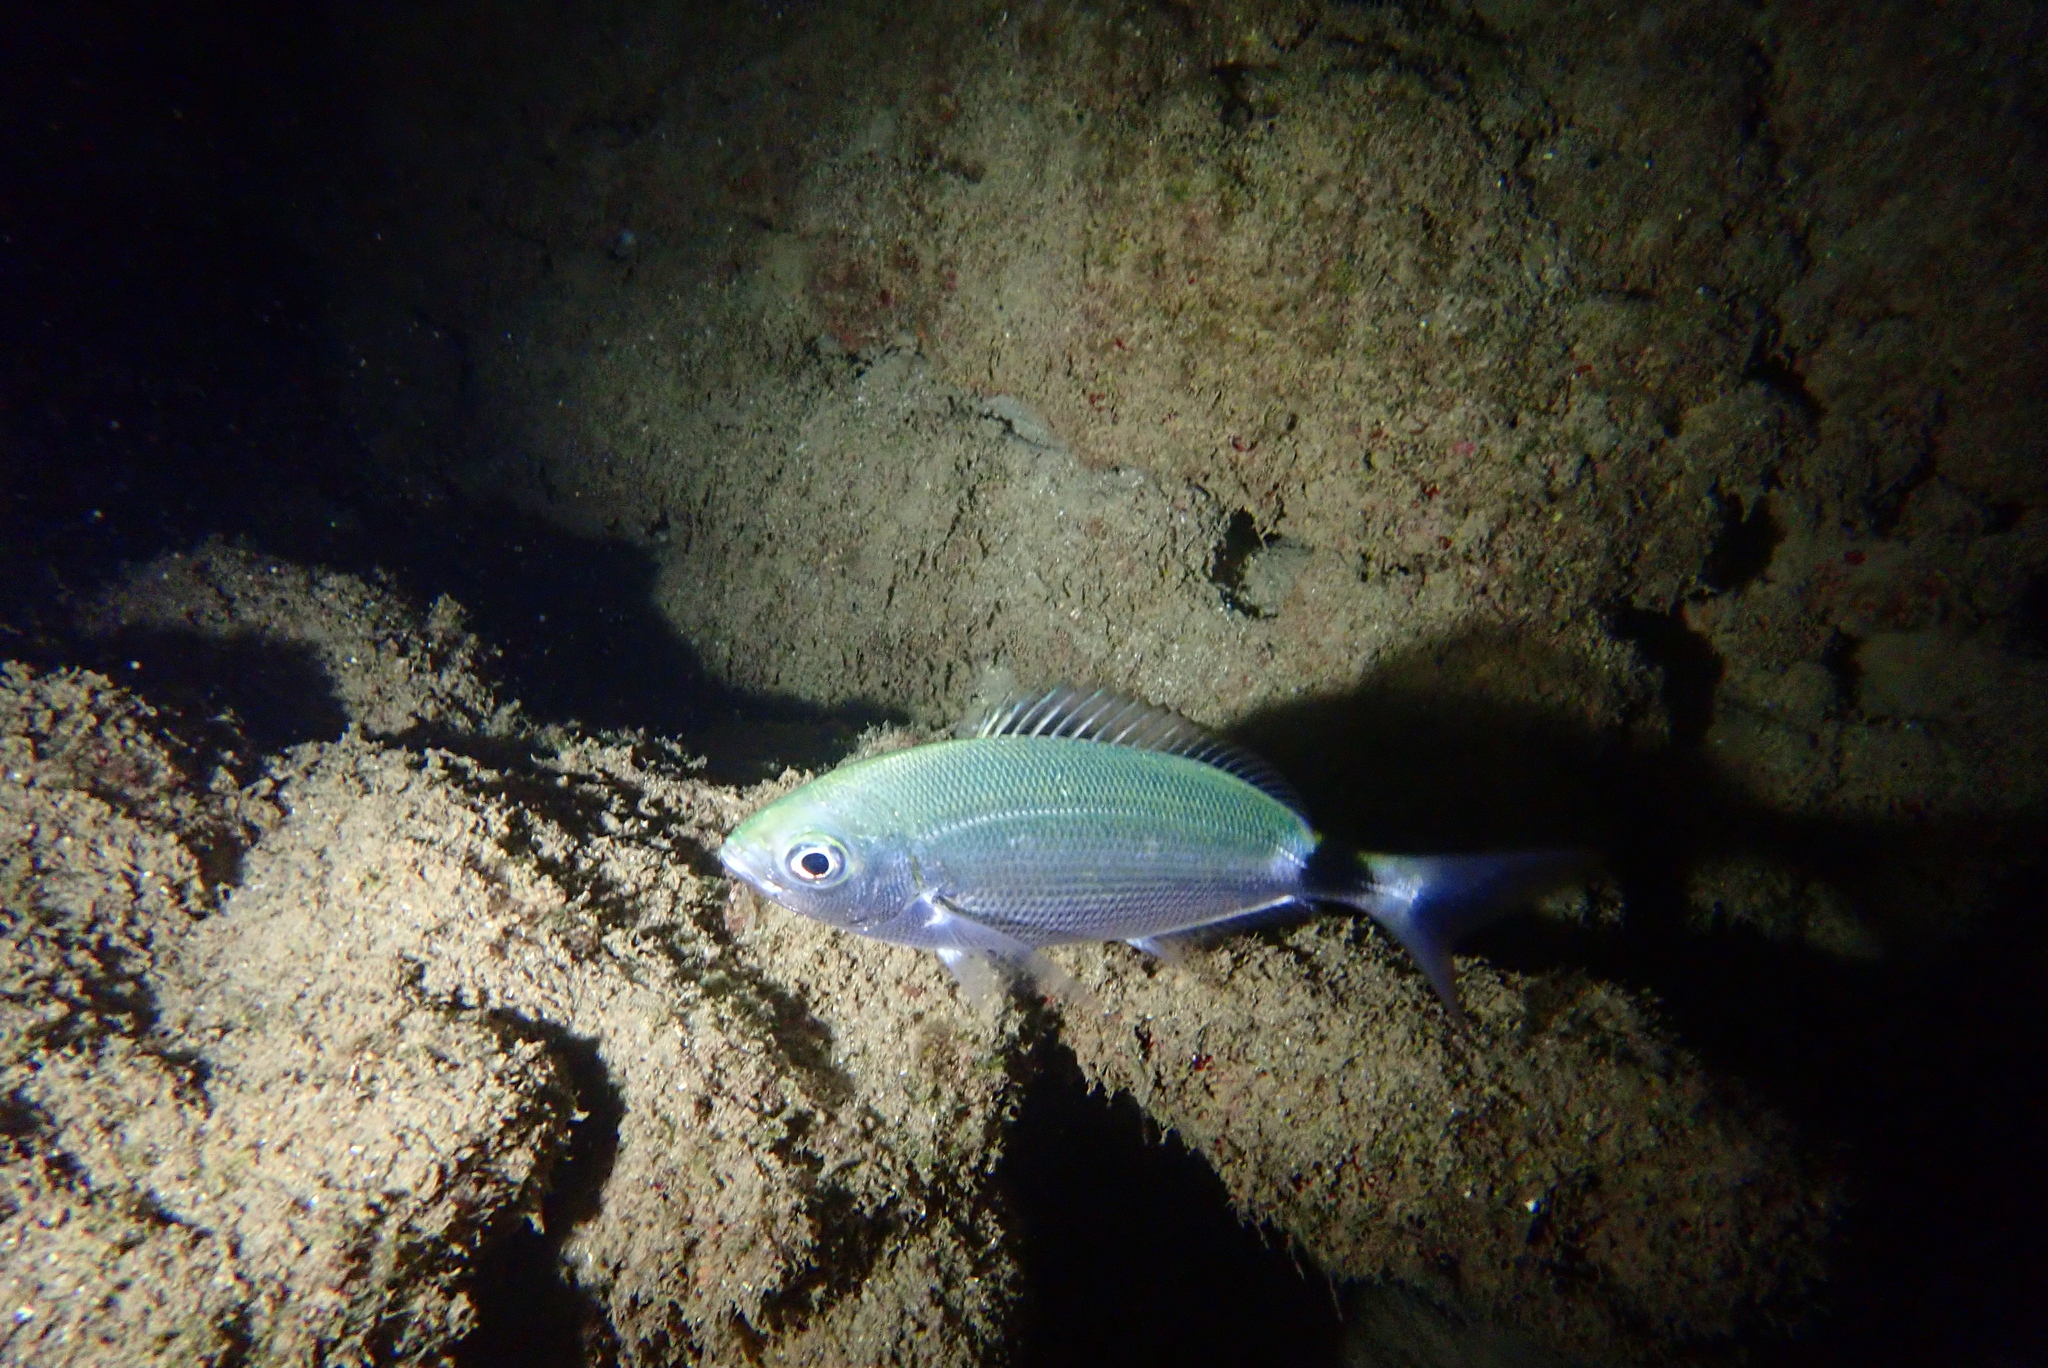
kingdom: Animalia
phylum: Chordata
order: Perciformes
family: Sparidae
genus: Oblada
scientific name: Oblada melanura
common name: Saddled seabream
